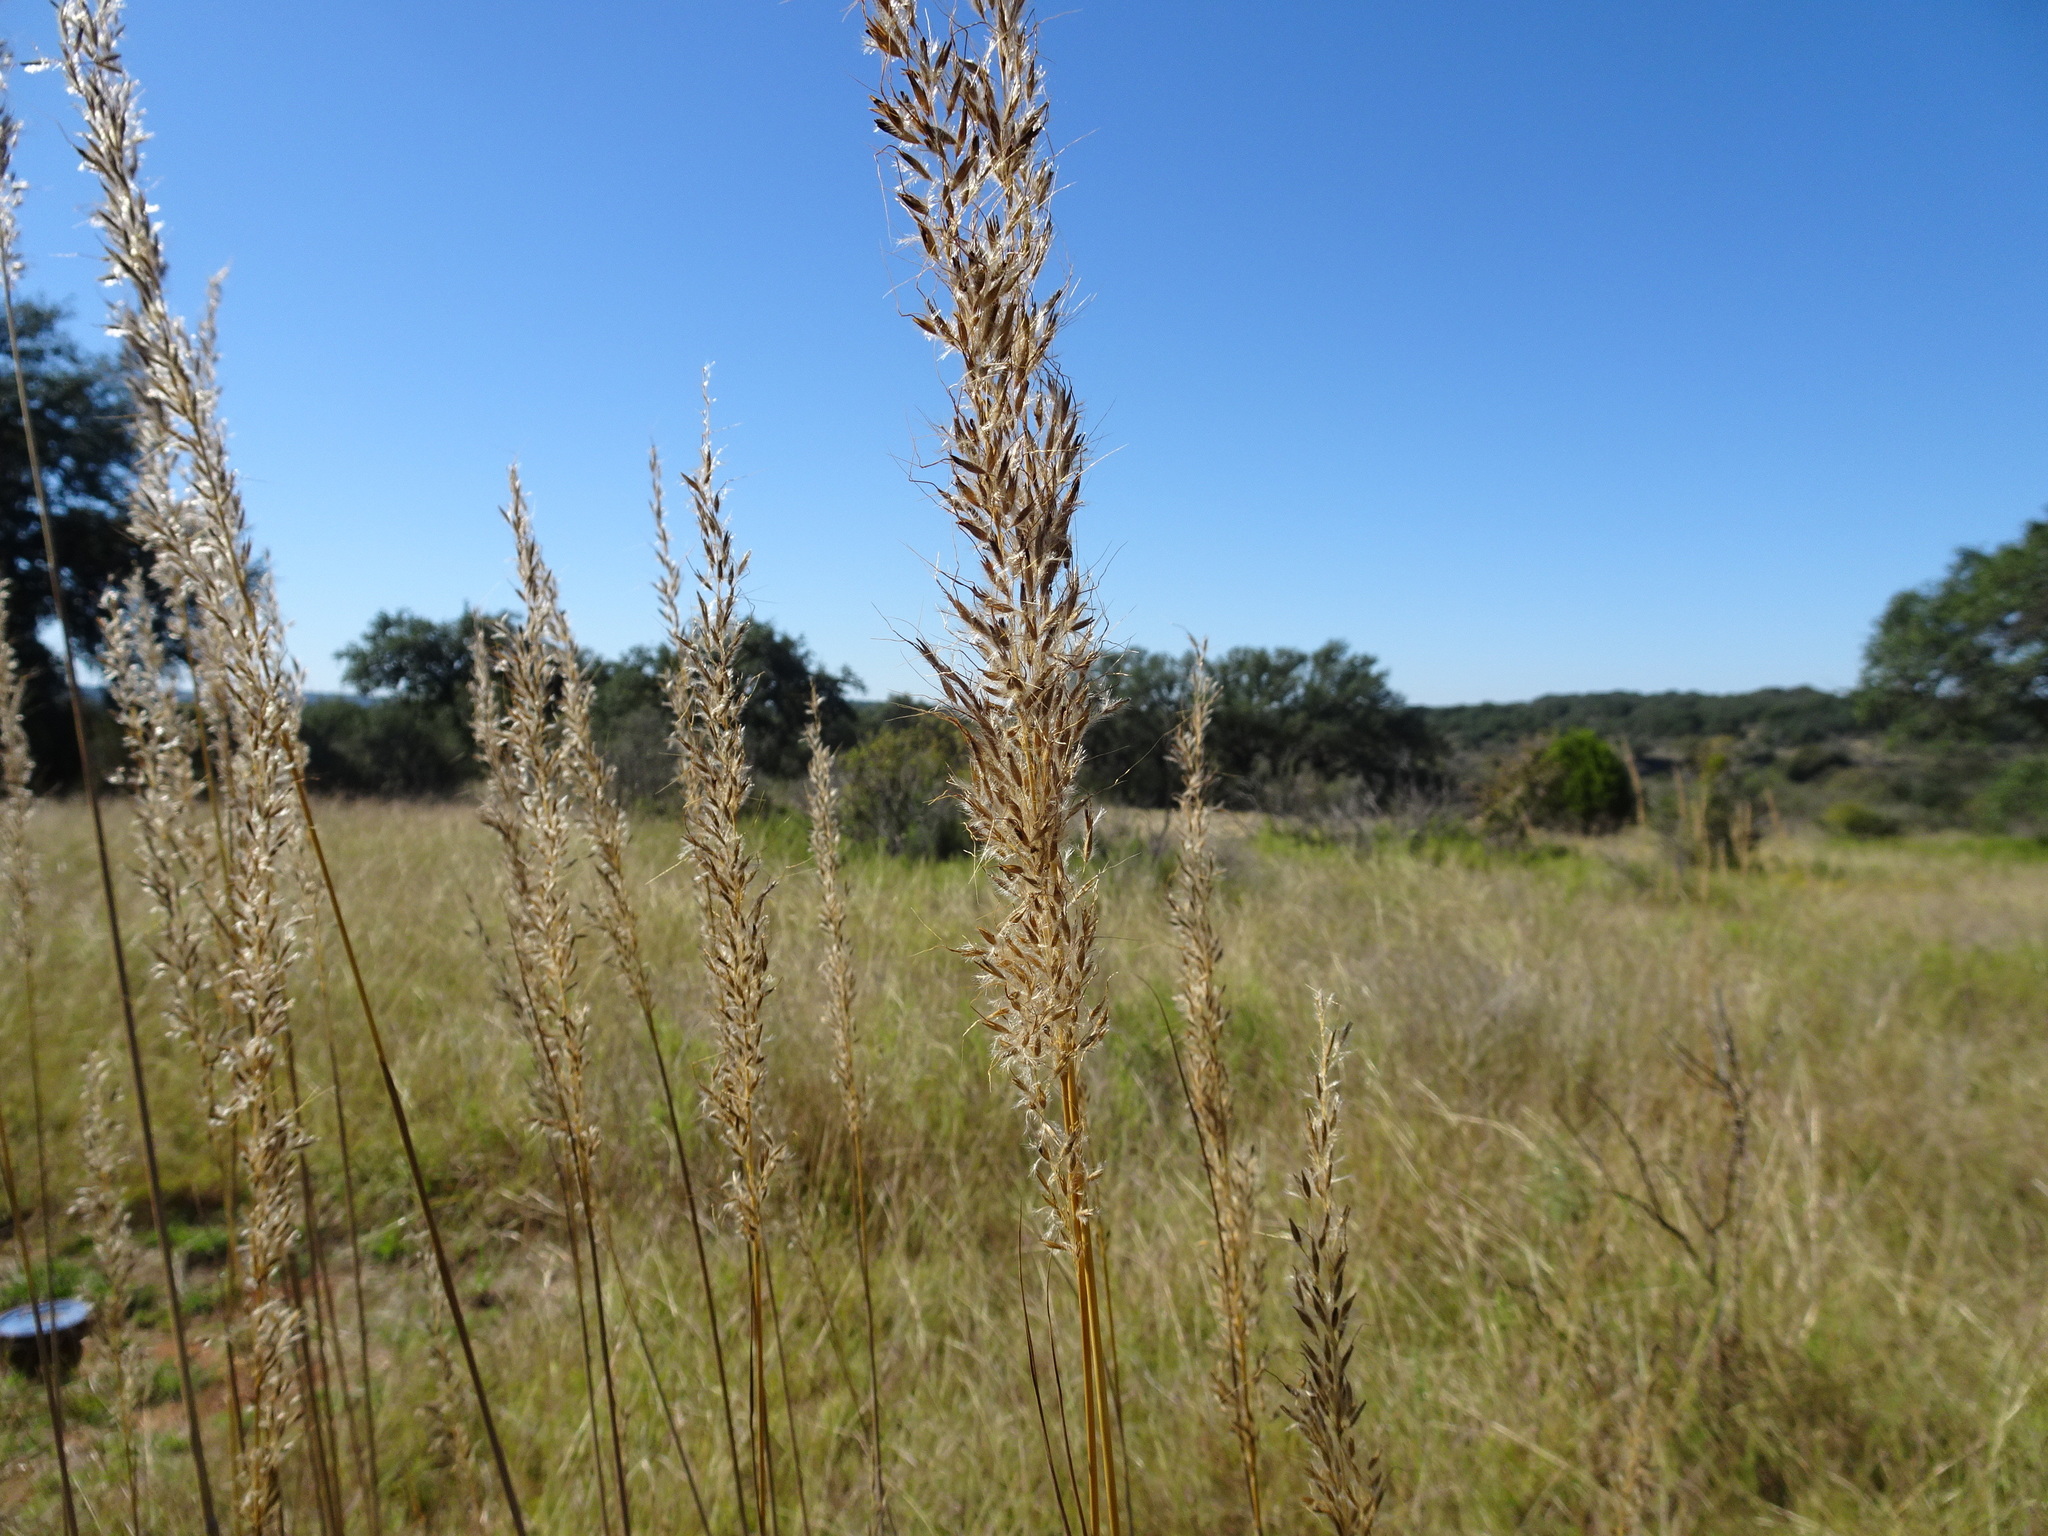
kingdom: Plantae
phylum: Tracheophyta
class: Liliopsida
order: Poales
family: Poaceae
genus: Sorghastrum
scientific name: Sorghastrum nutans
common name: Indian grass
